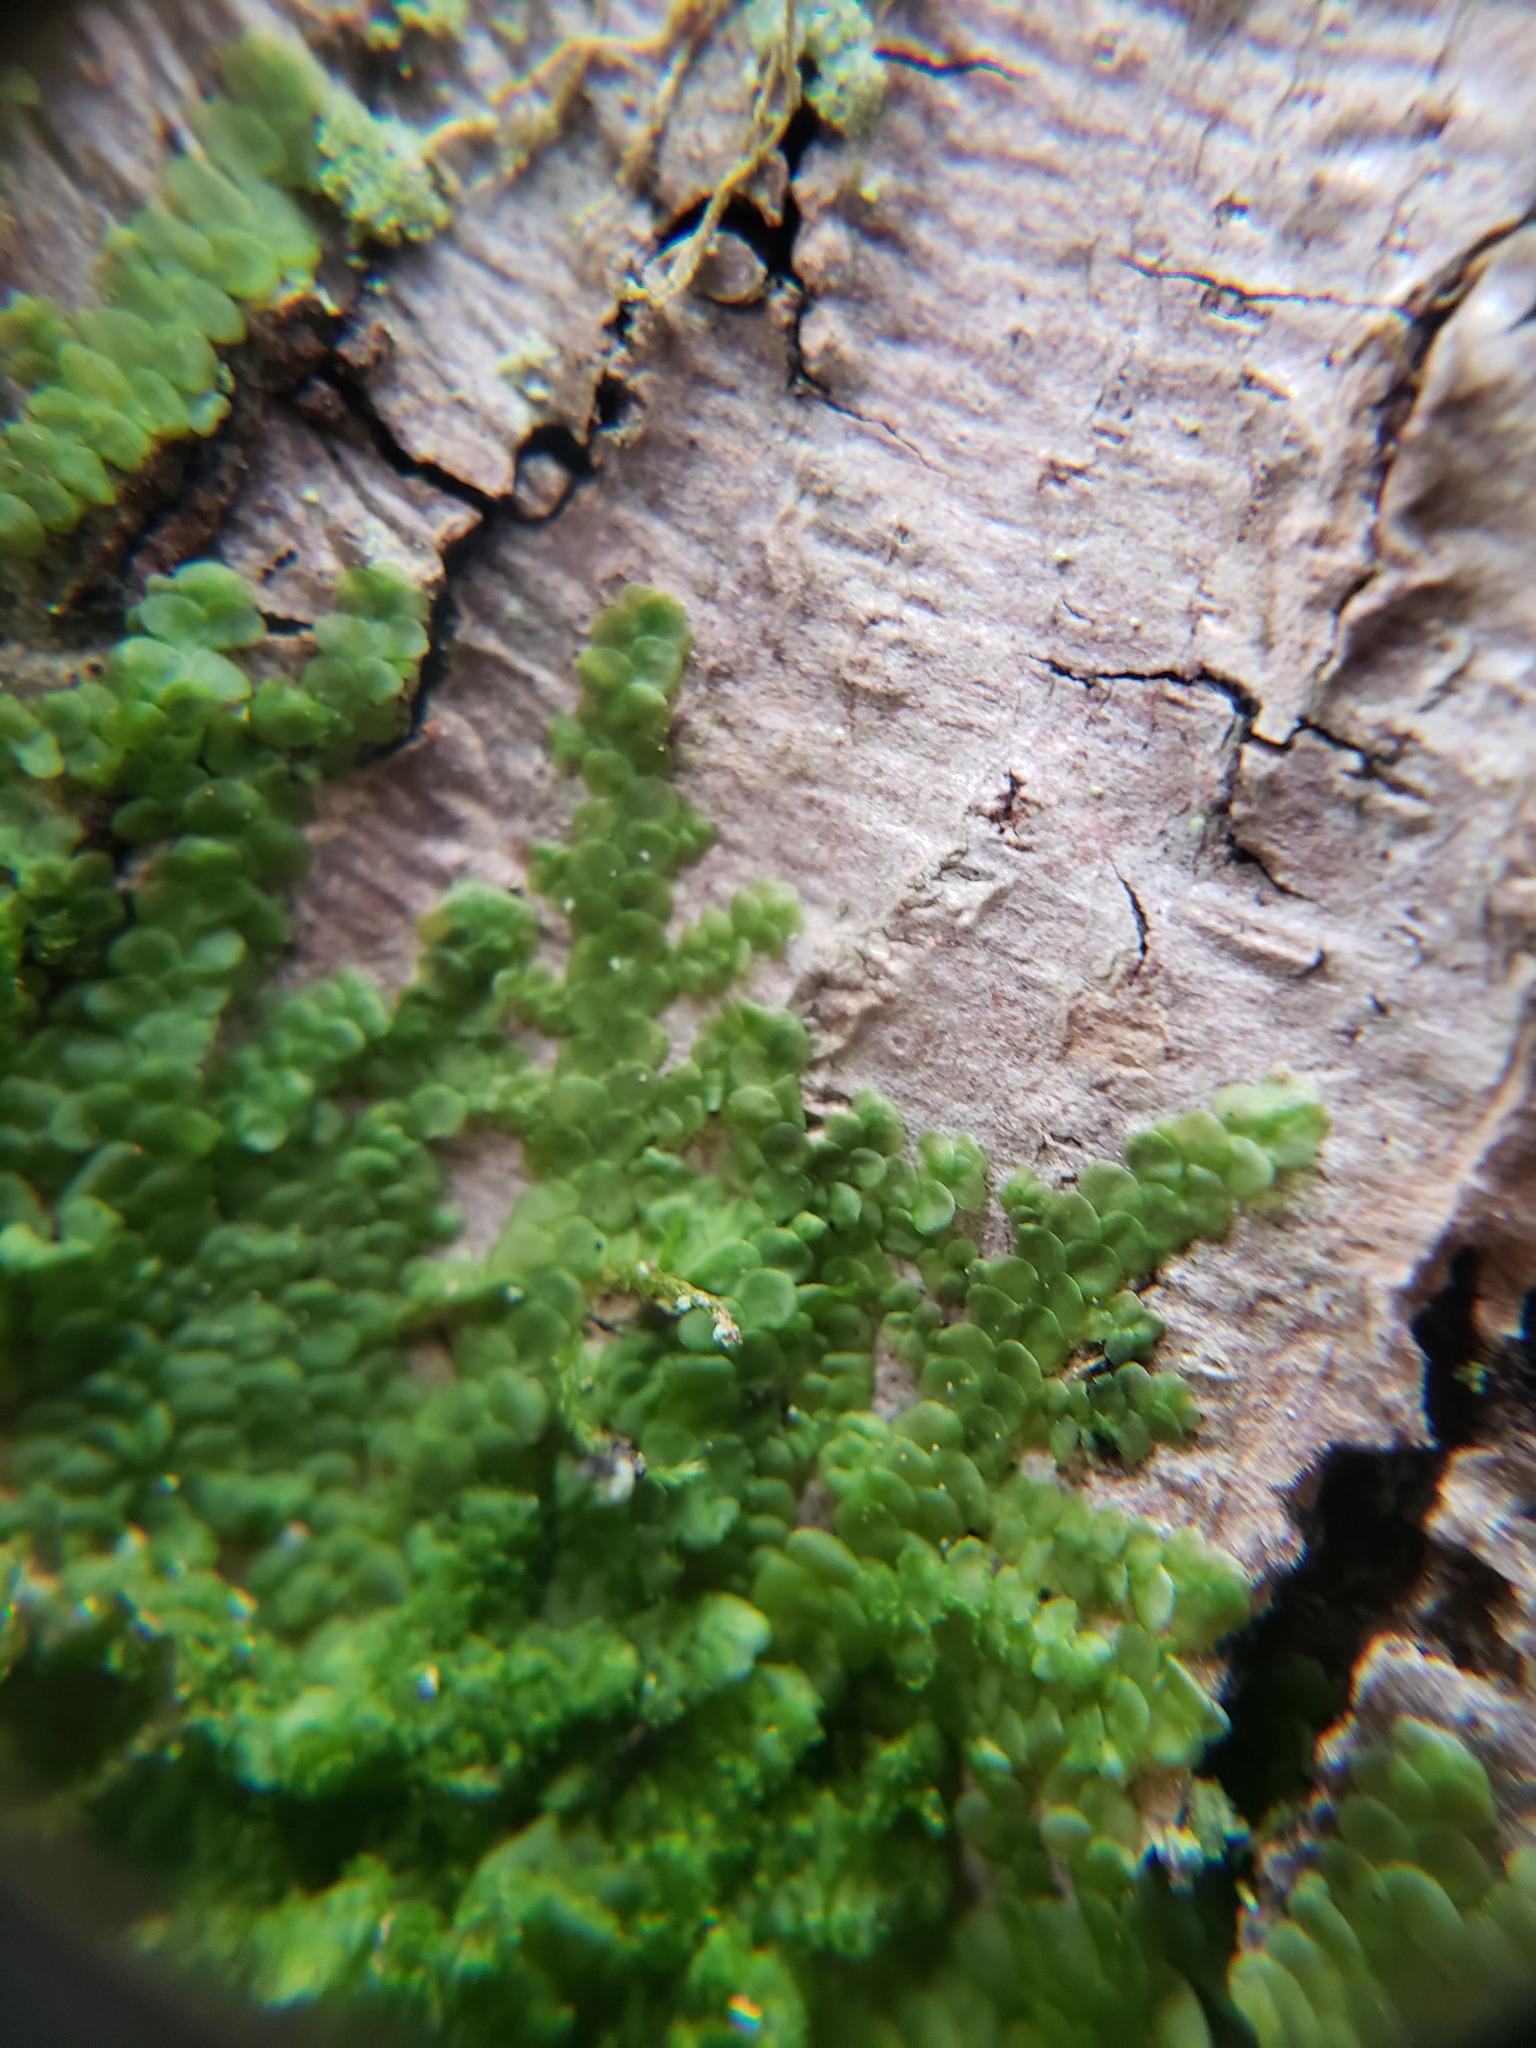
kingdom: Plantae
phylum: Marchantiophyta
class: Jungermanniopsida
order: Porellales
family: Radulaceae
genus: Radula
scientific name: Radula complanata
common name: Flat-leaved scalewort
